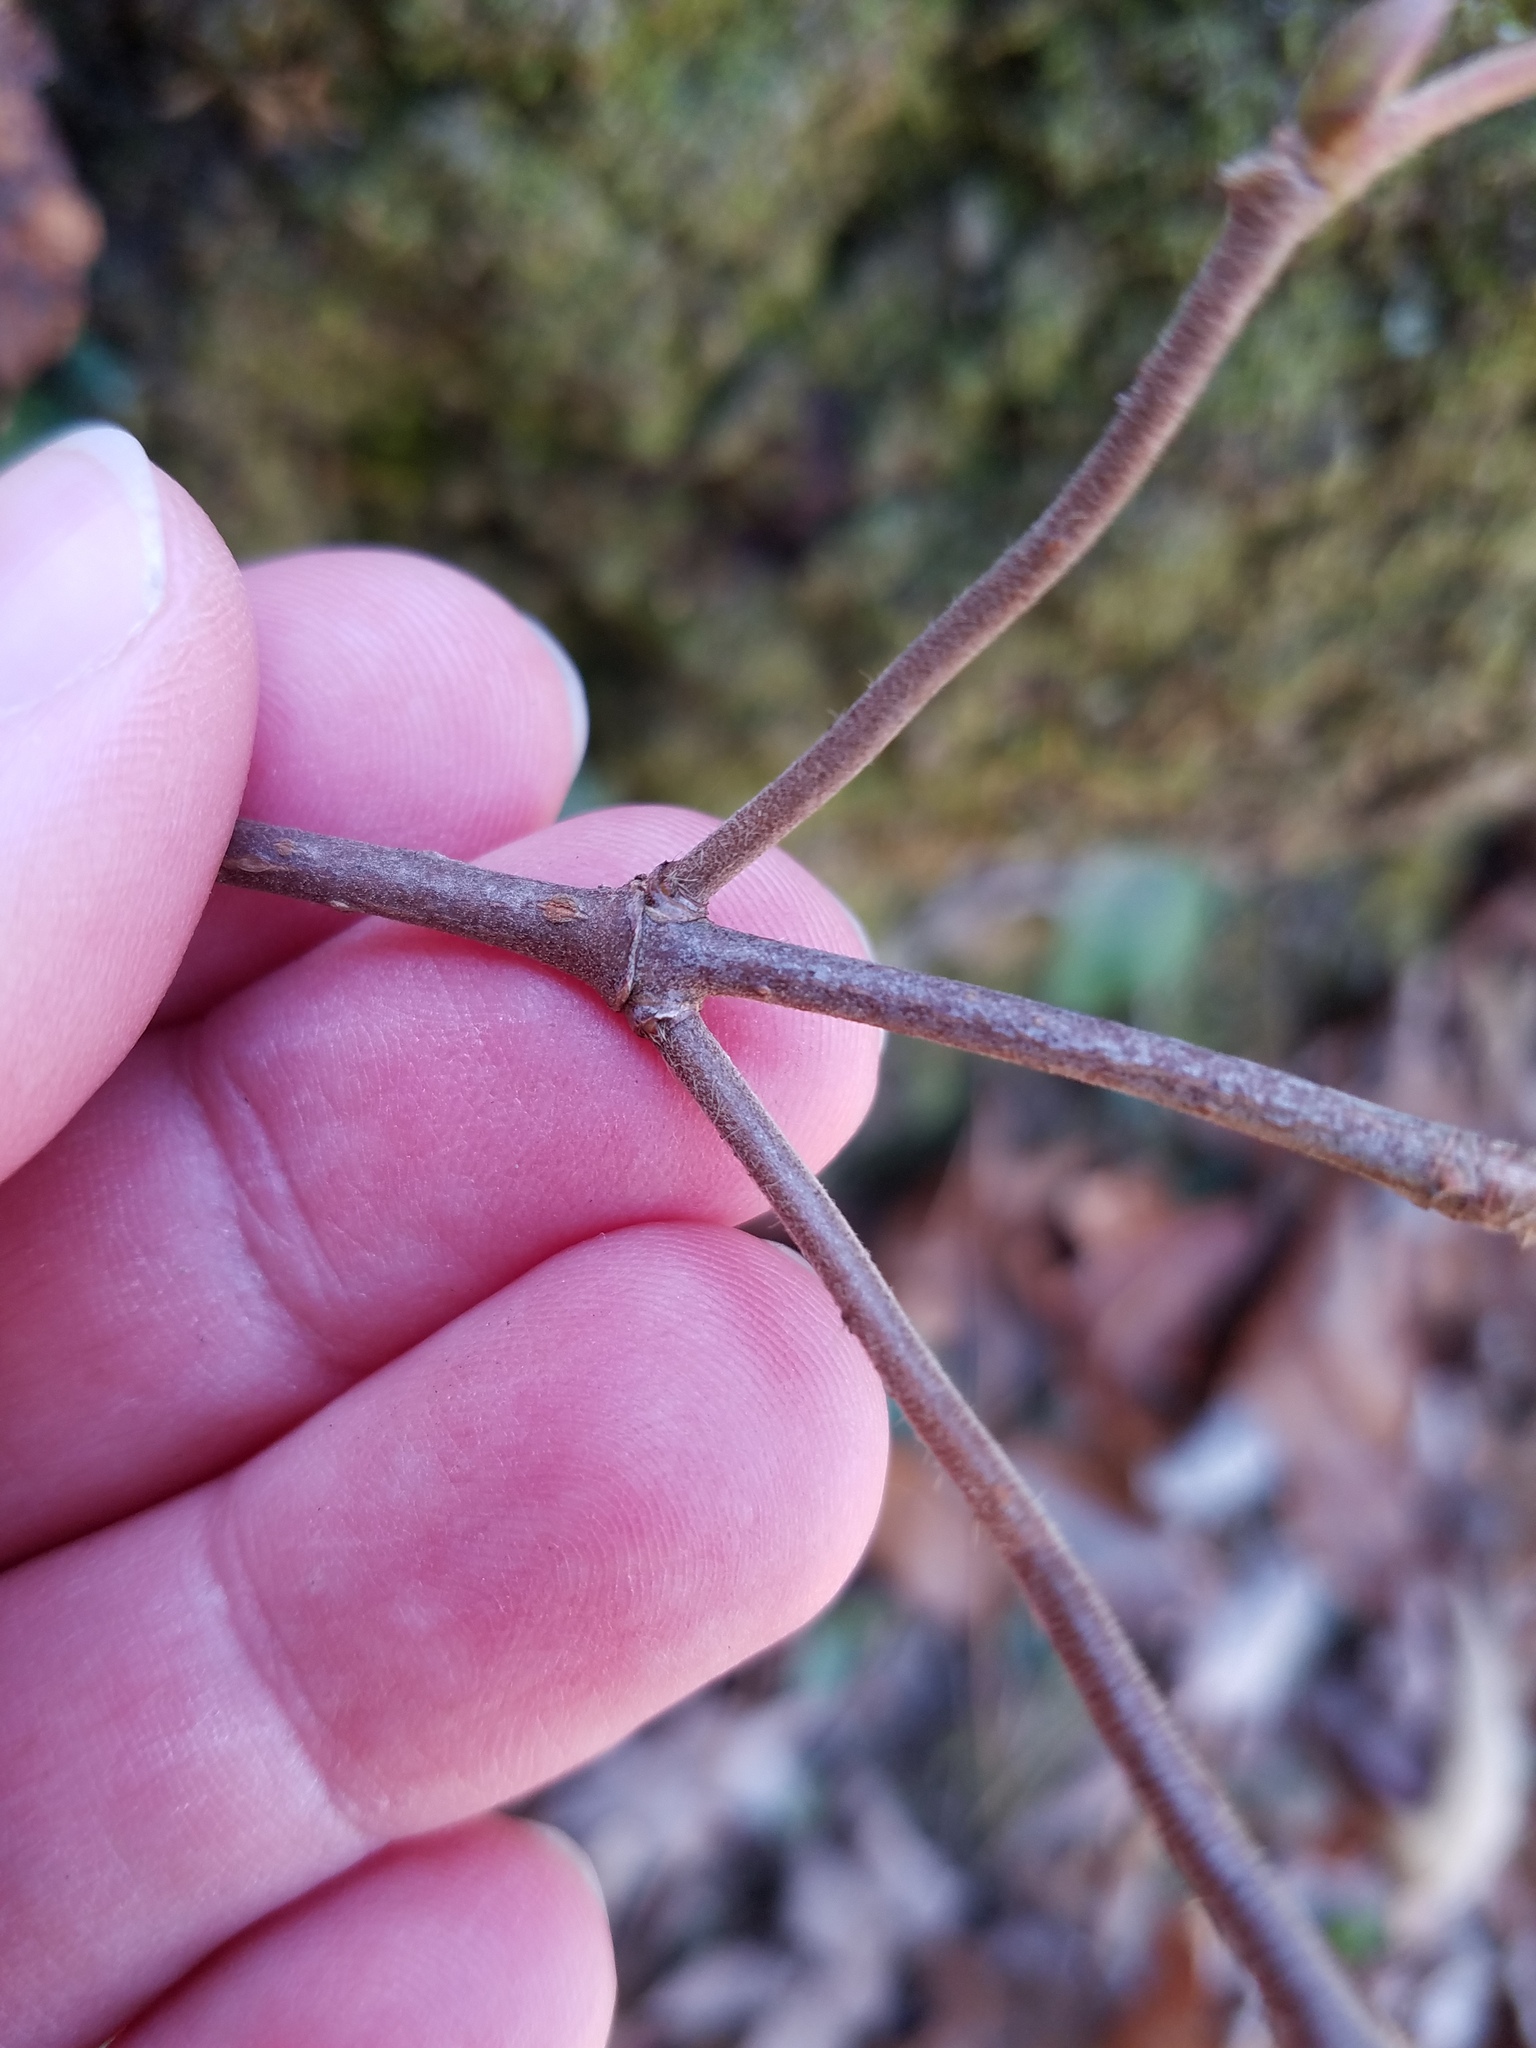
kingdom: Plantae
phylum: Tracheophyta
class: Magnoliopsida
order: Dipsacales
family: Viburnaceae
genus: Viburnum
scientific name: Viburnum acerifolium
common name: Dockmackie
